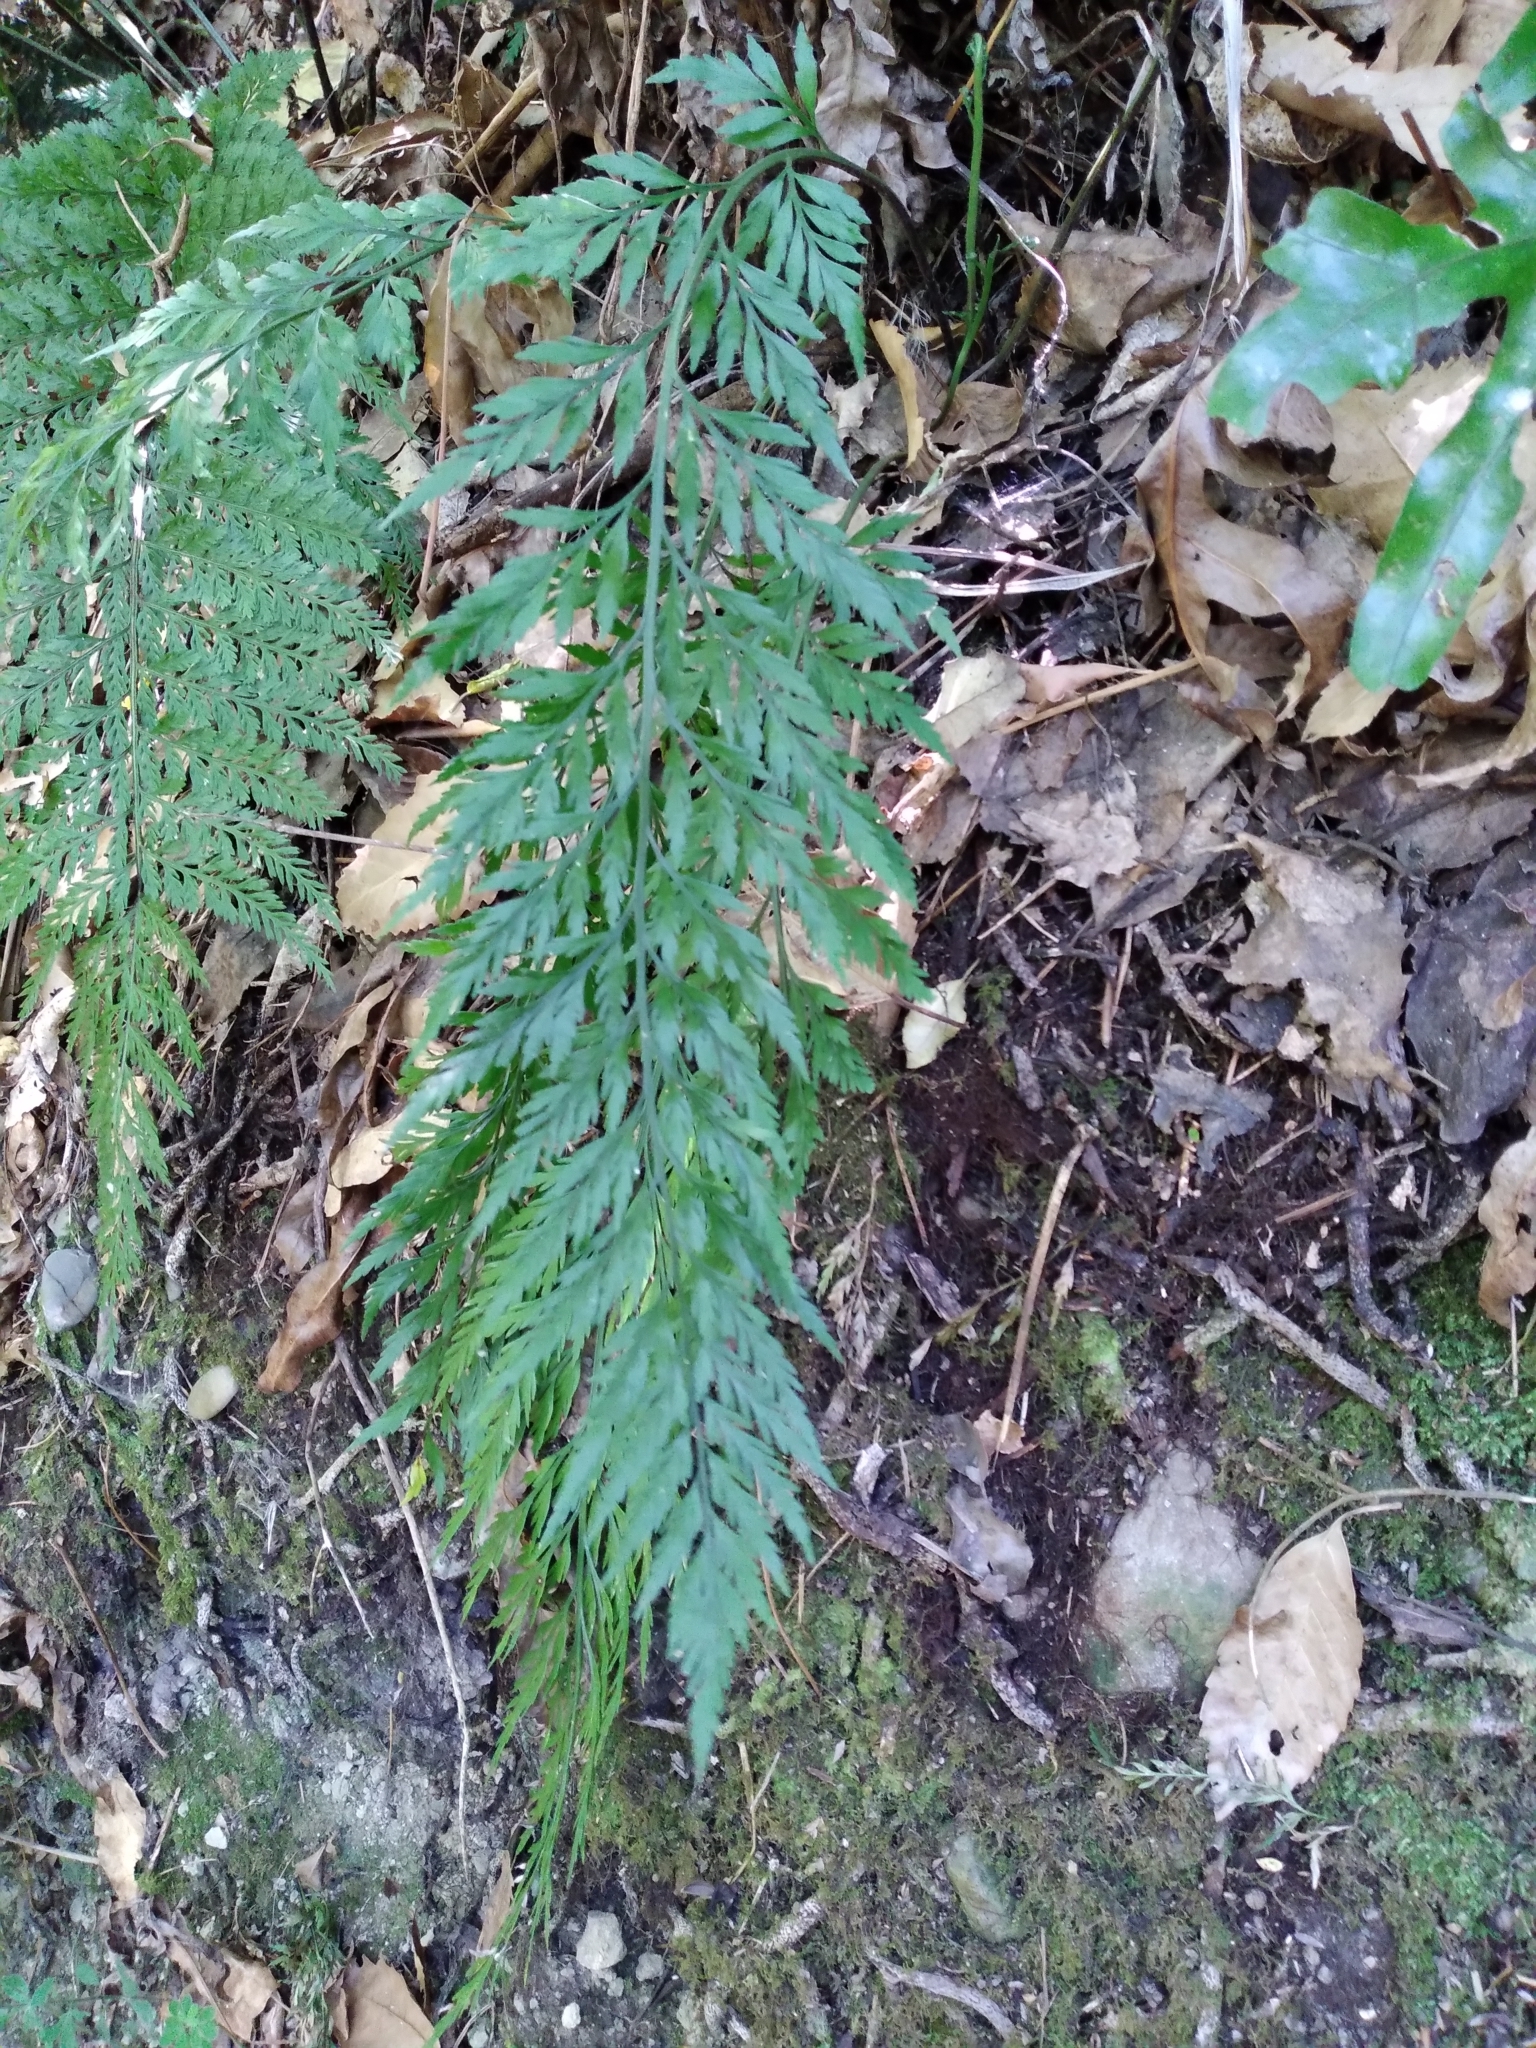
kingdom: Plantae
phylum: Tracheophyta
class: Polypodiopsida
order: Polypodiales
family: Aspleniaceae
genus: Asplenium
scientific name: Asplenium appendiculatum
